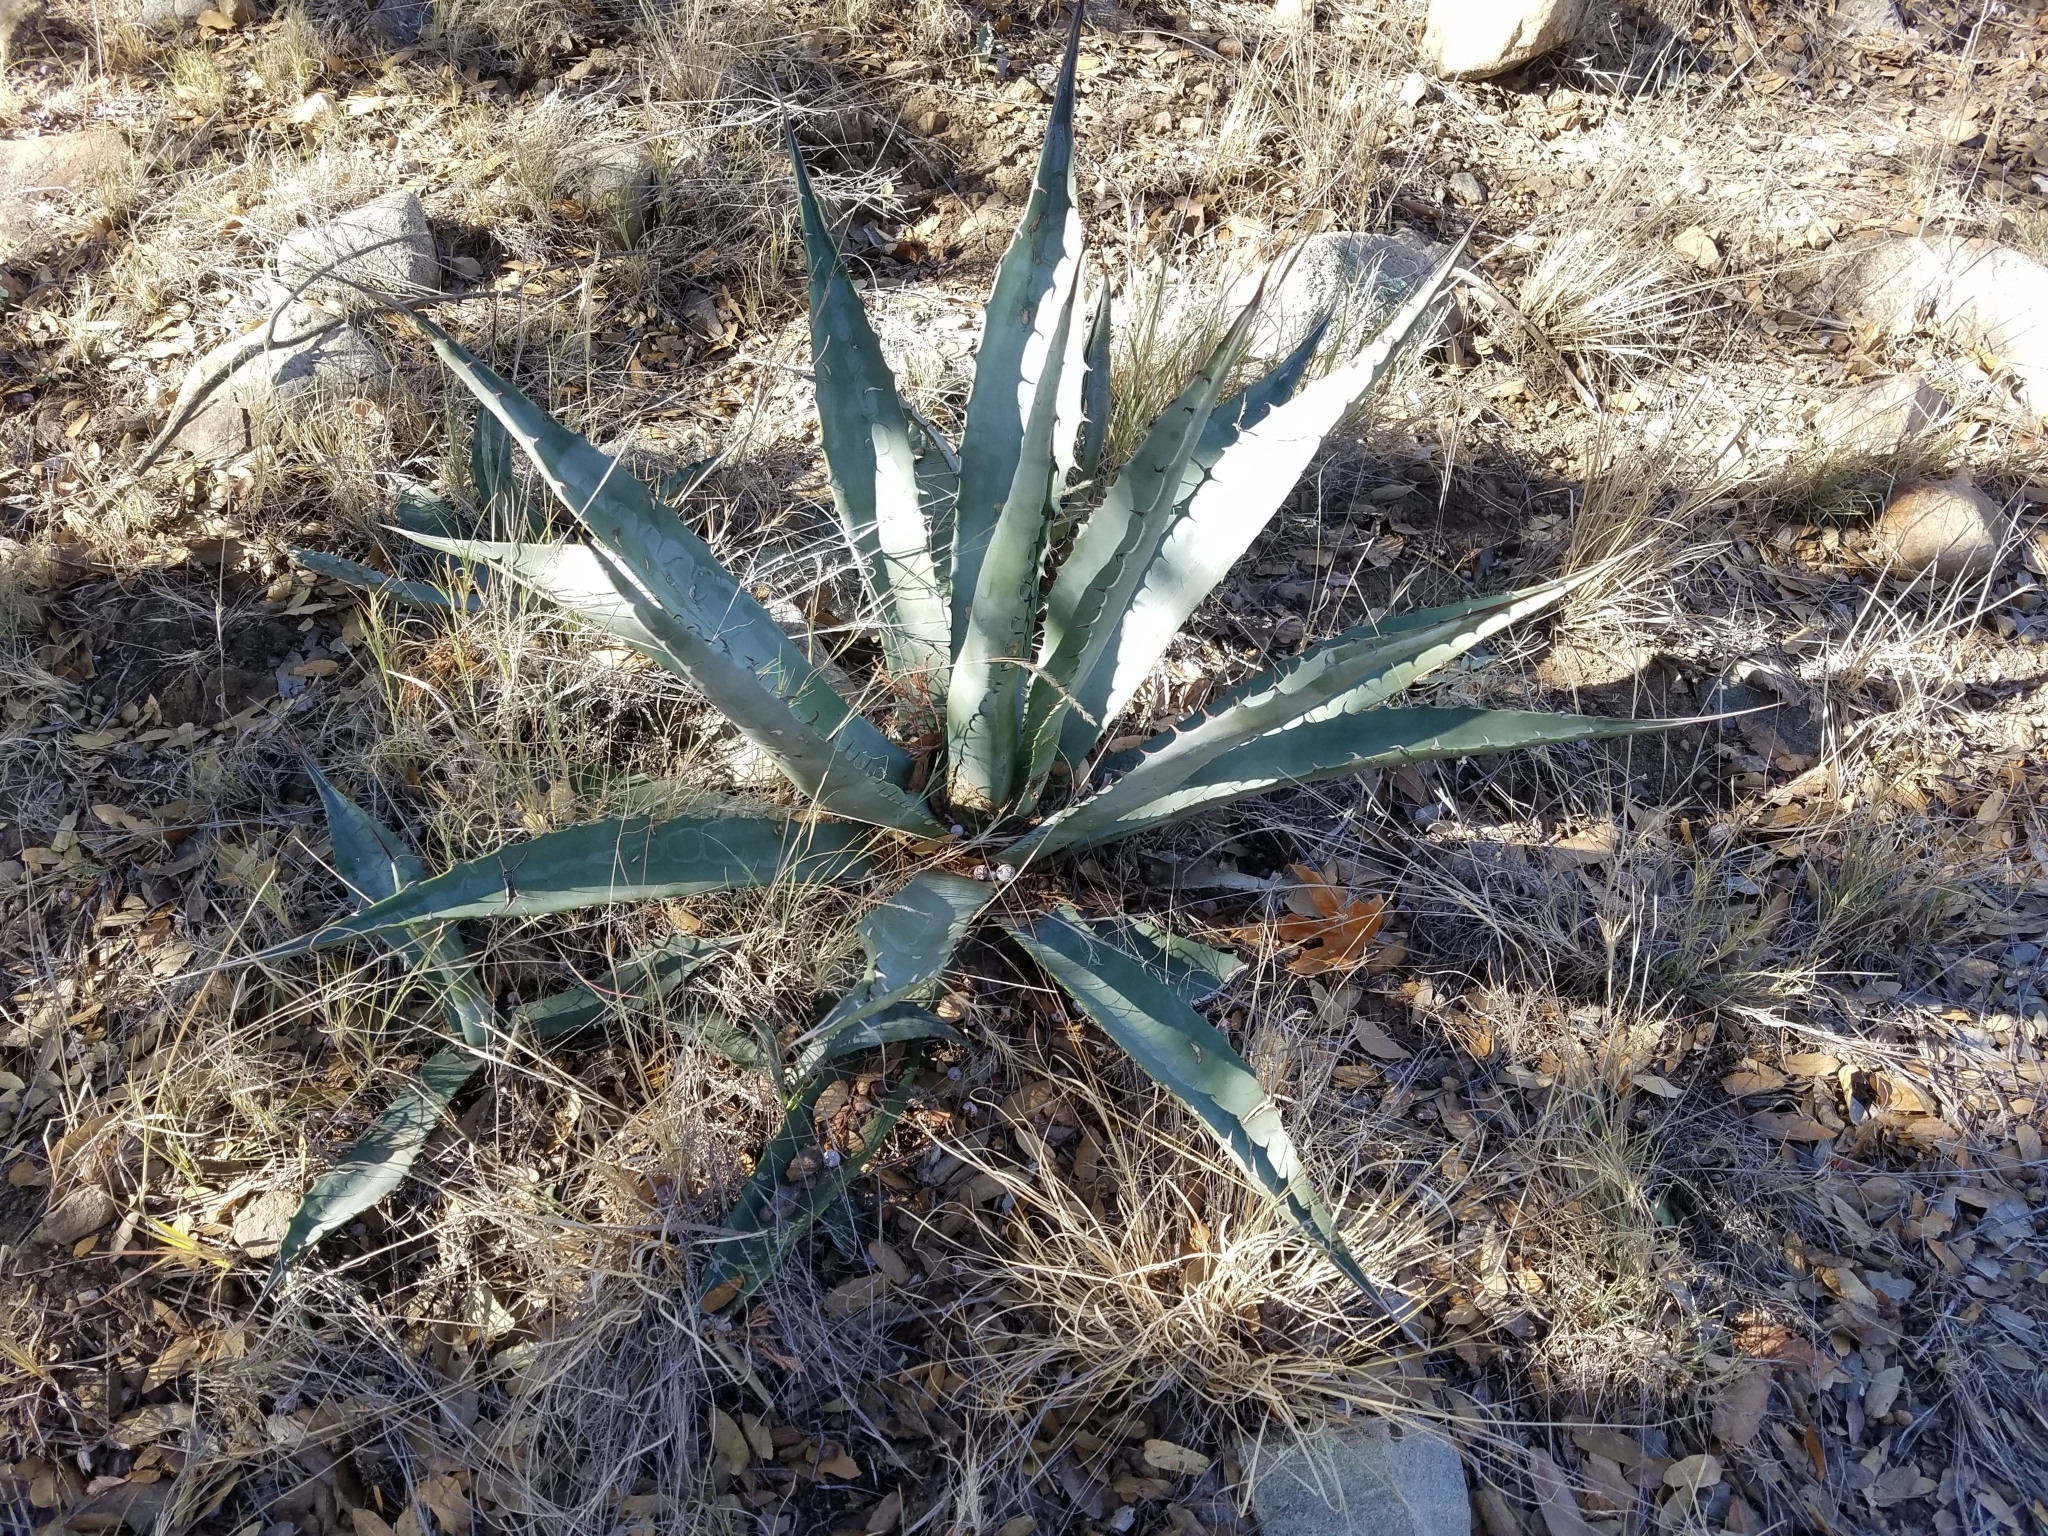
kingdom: Plantae
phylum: Tracheophyta
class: Liliopsida
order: Asparagales
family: Asparagaceae
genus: Agave
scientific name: Agave palmeri
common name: Palmer agave
